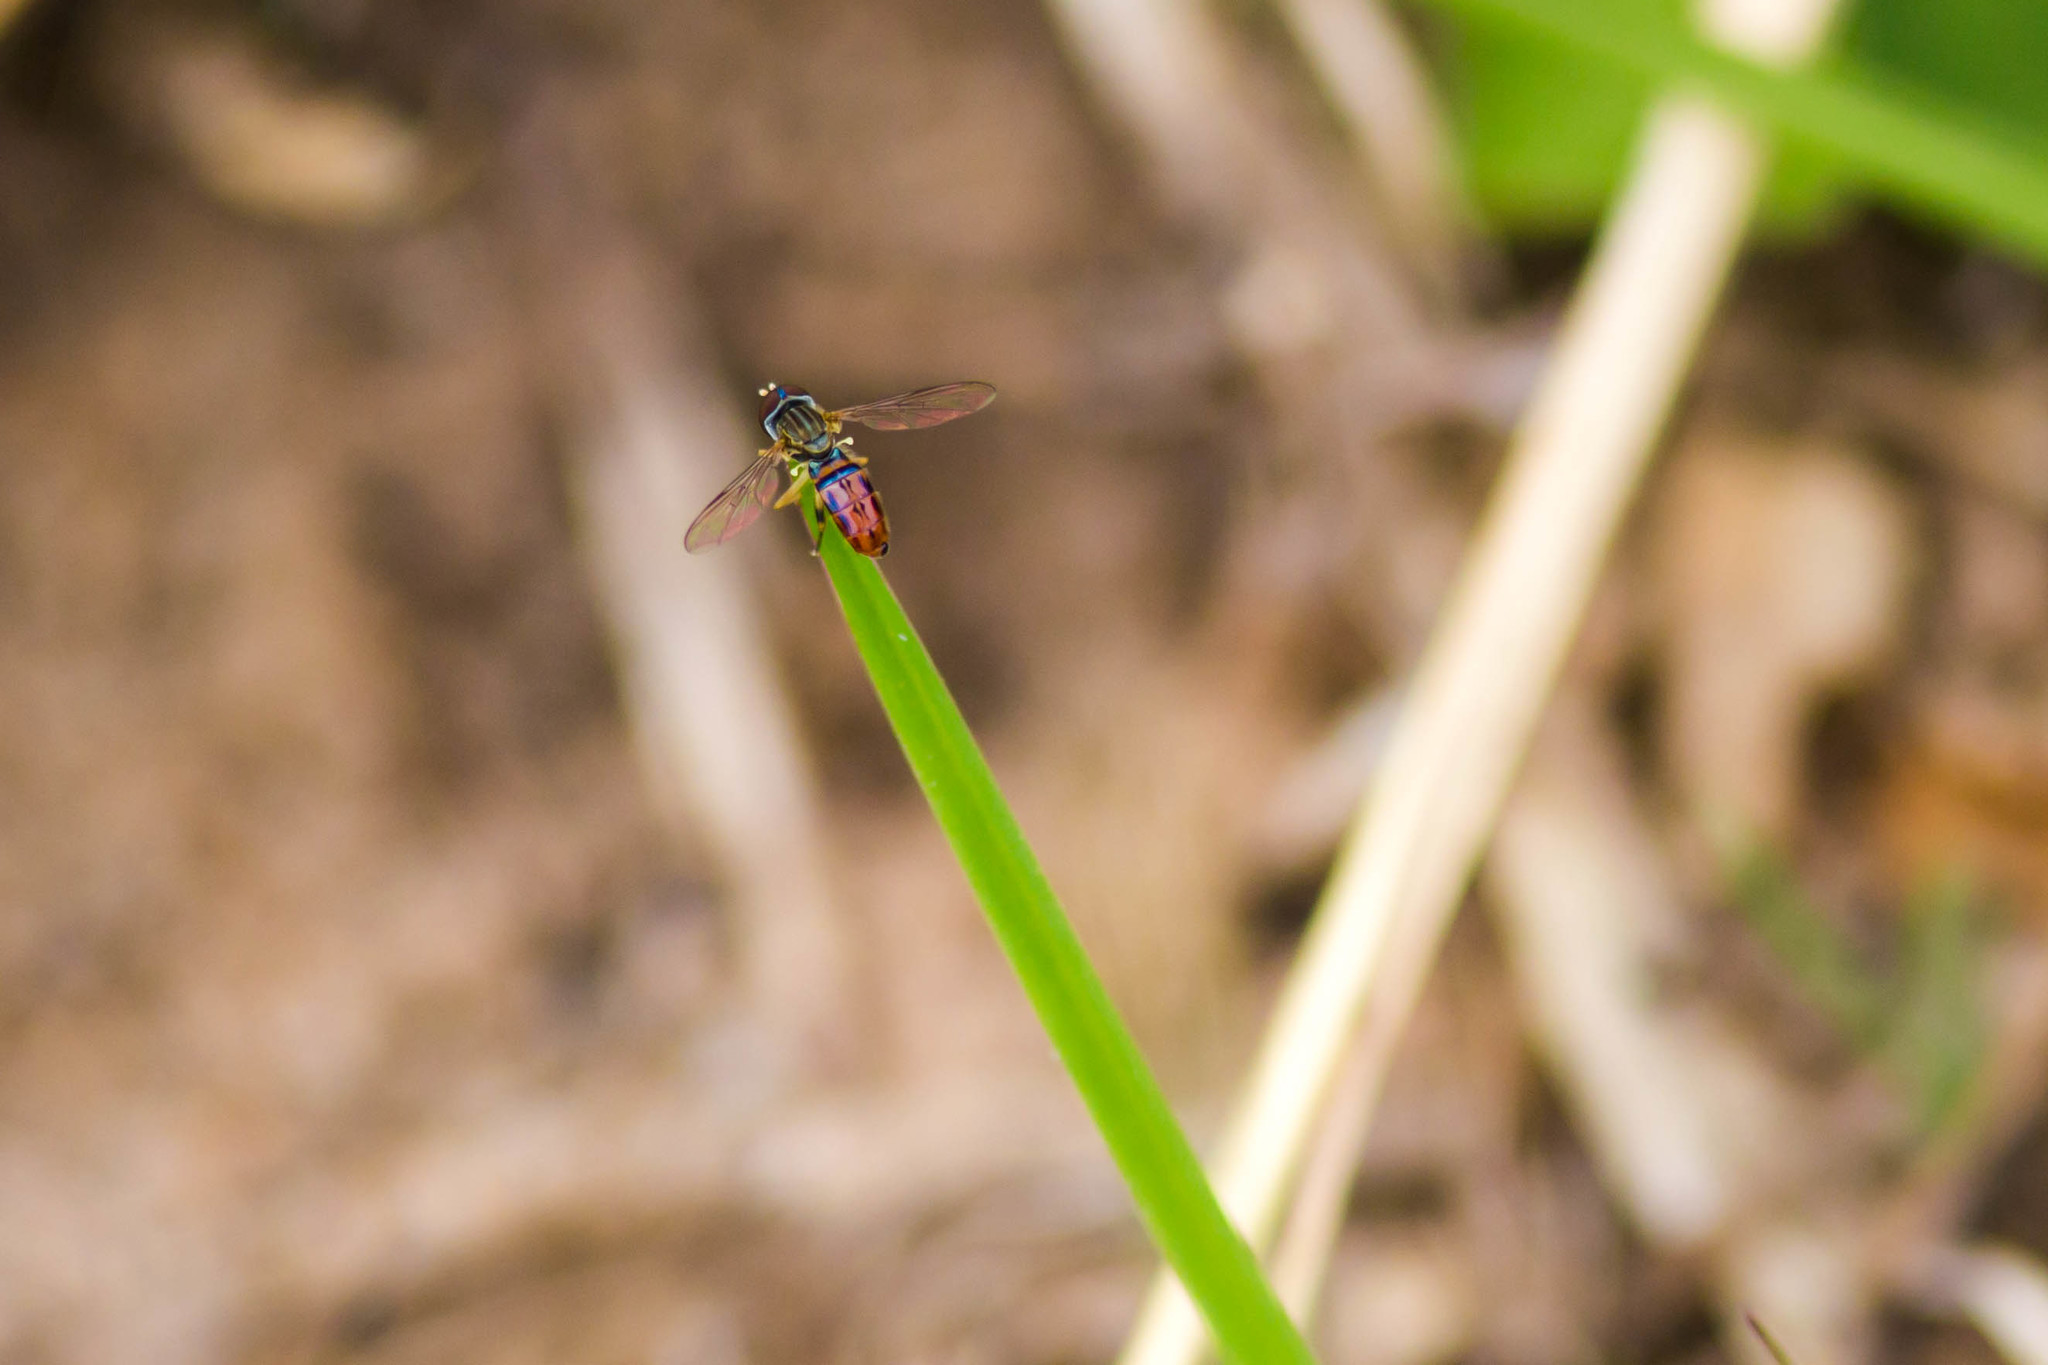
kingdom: Animalia
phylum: Arthropoda
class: Insecta
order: Diptera
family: Syrphidae
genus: Toxomerus
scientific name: Toxomerus boscii
